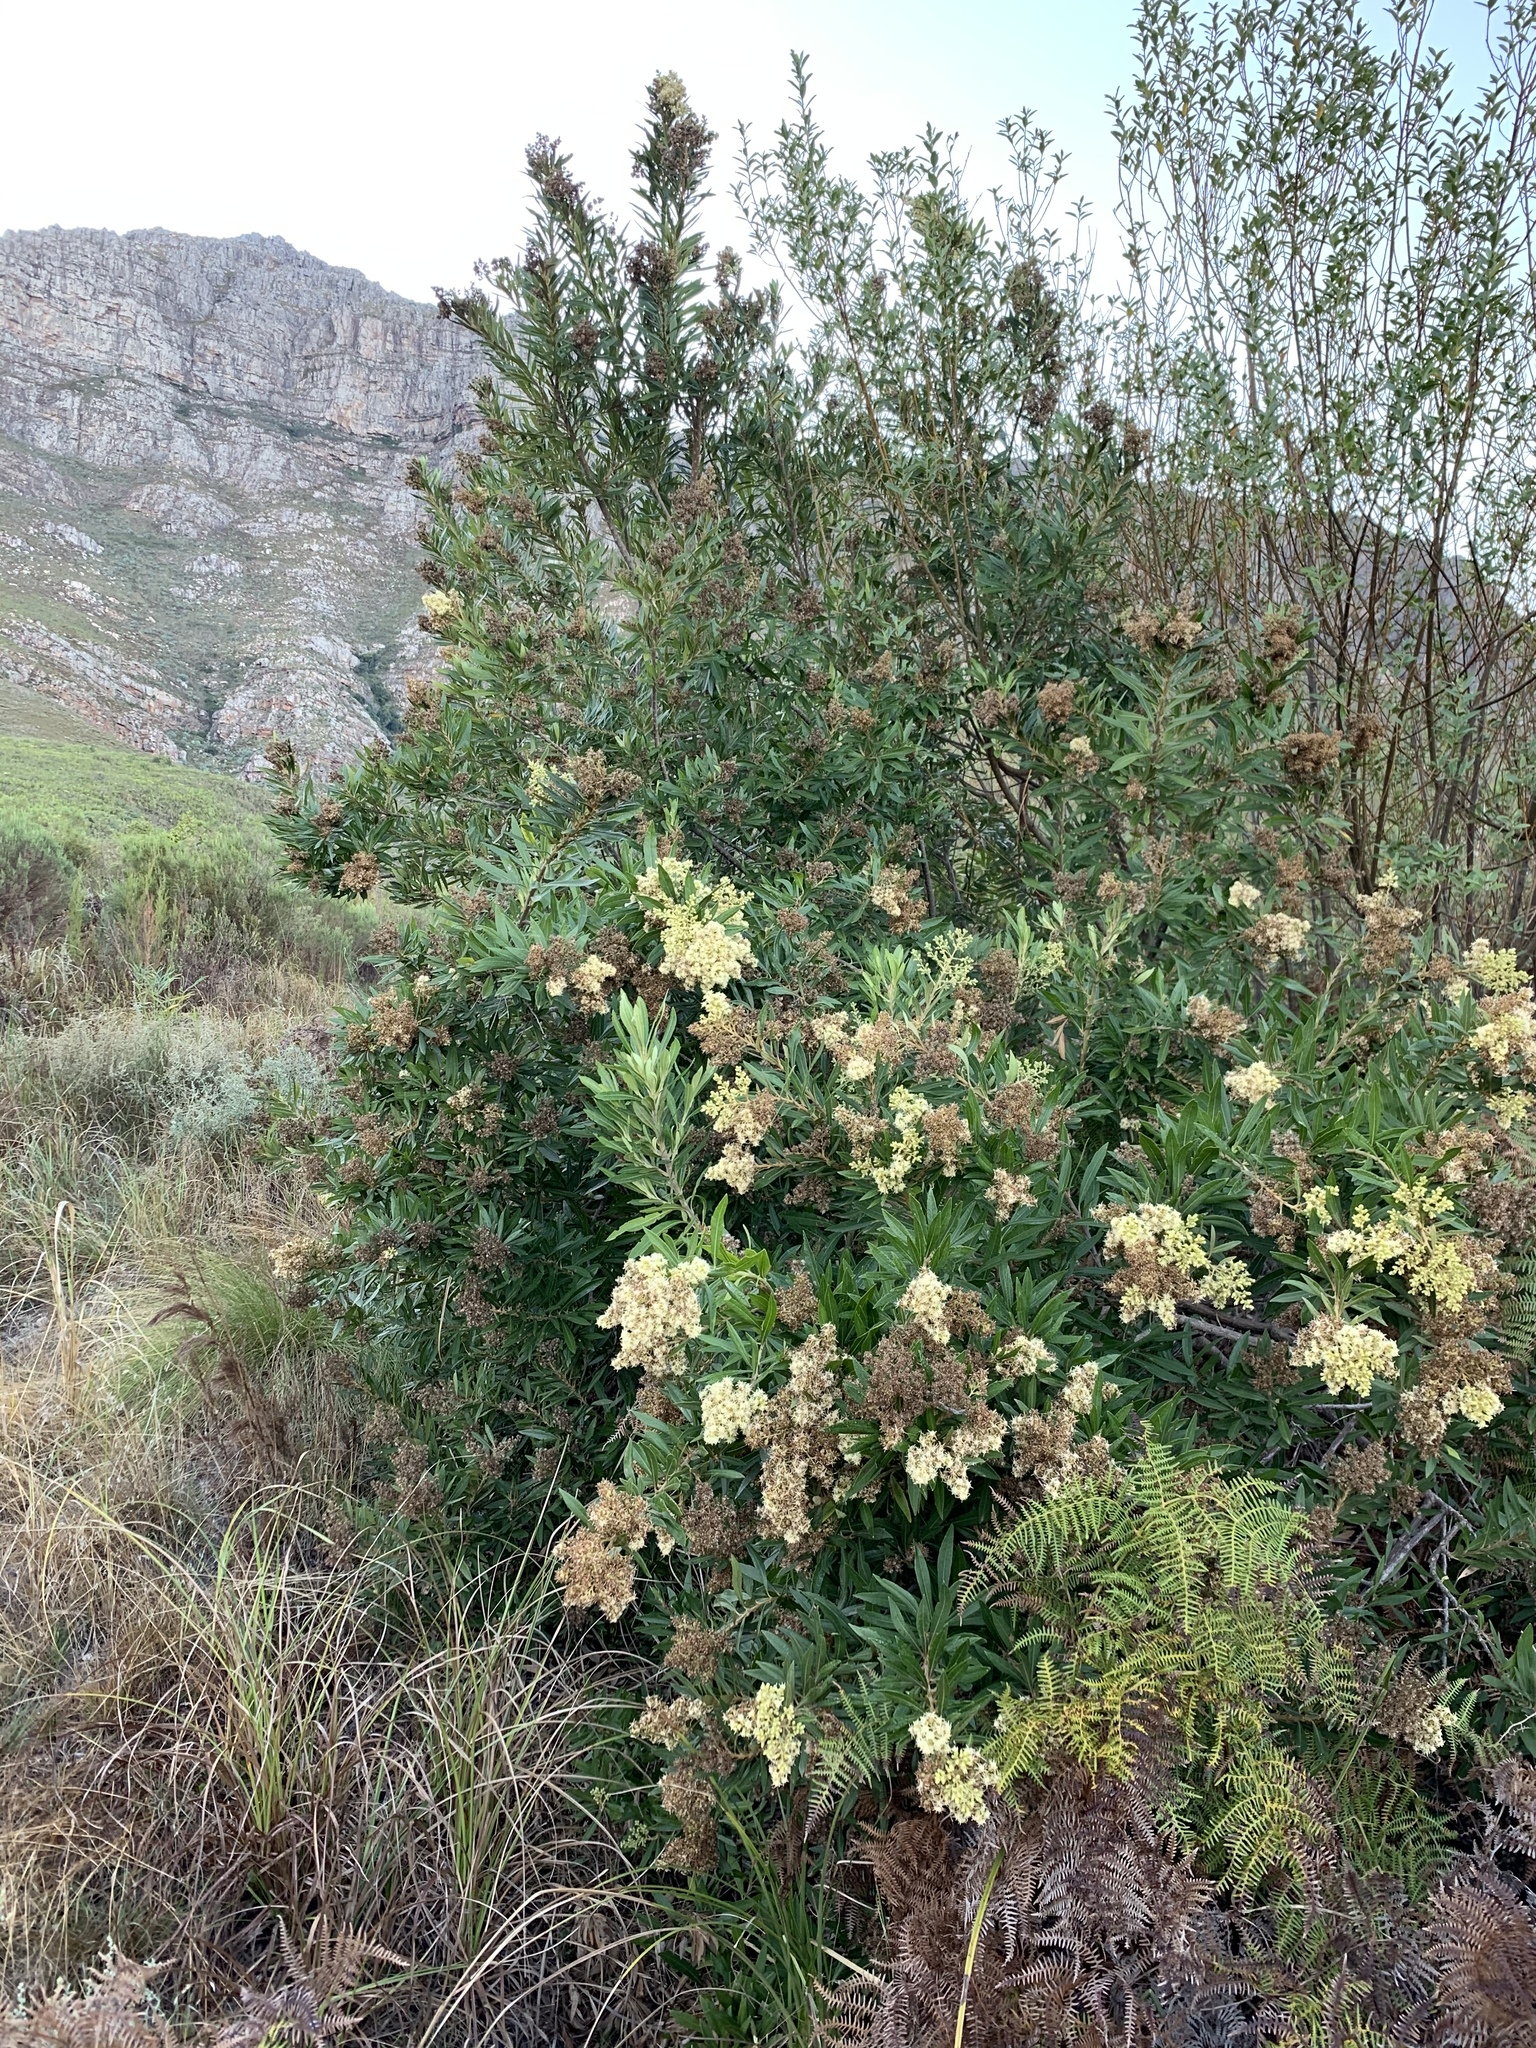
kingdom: Plantae
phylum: Tracheophyta
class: Magnoliopsida
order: Asterales
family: Asteraceae
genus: Brachylaena
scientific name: Brachylaena neriifolia
